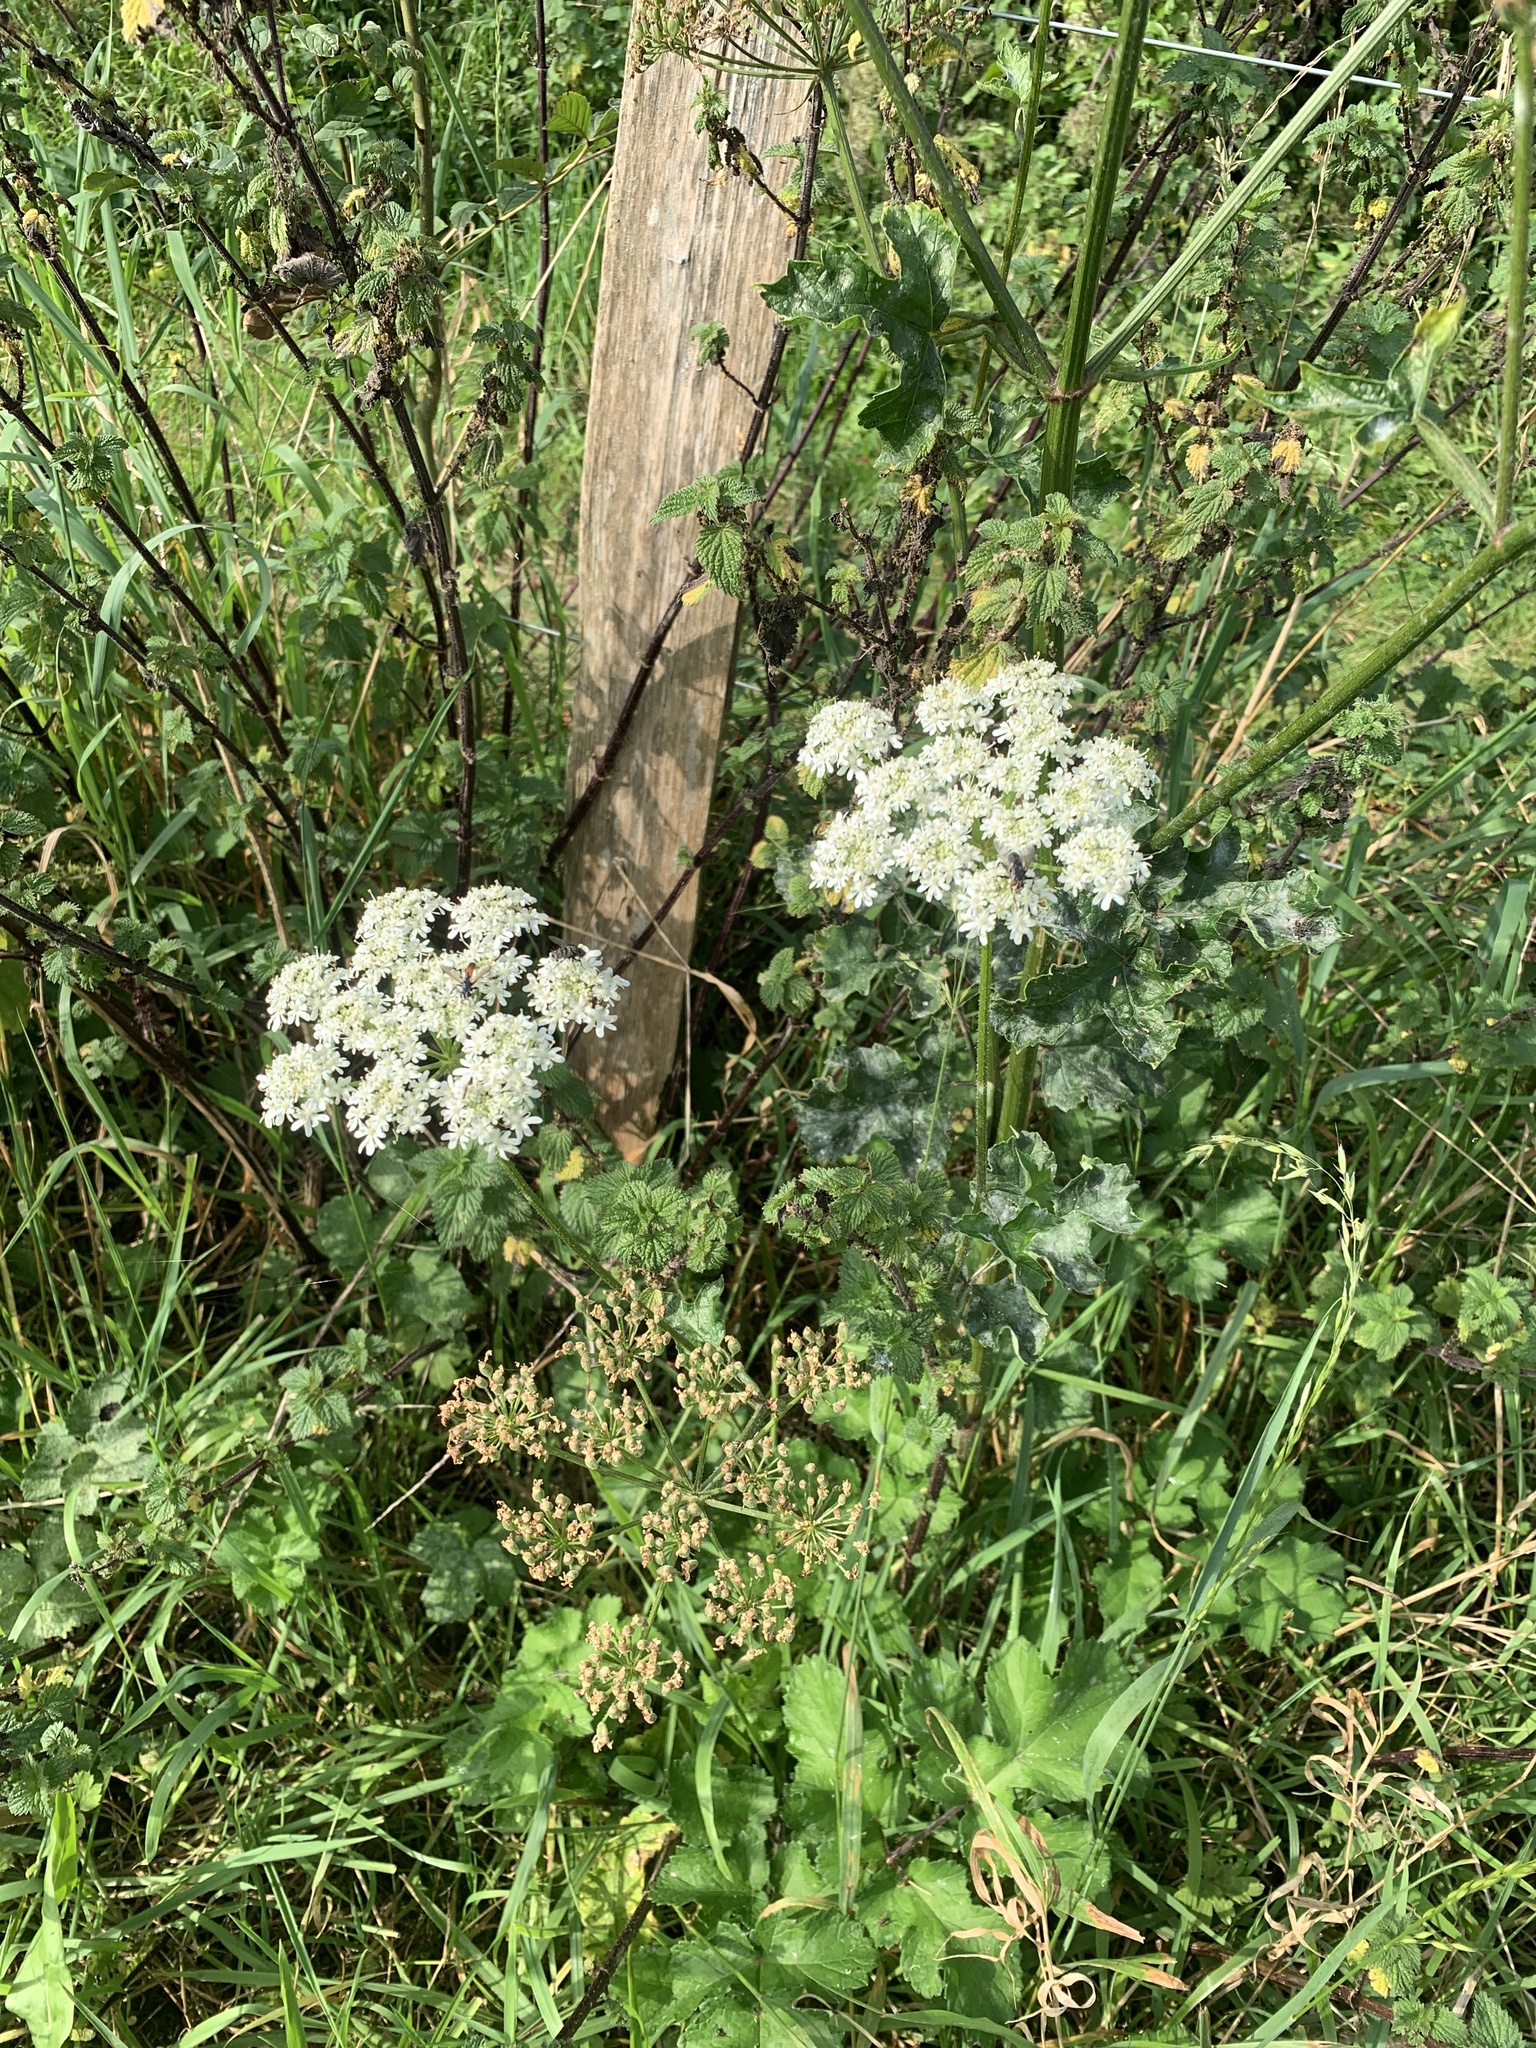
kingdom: Plantae
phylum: Tracheophyta
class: Magnoliopsida
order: Apiales
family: Apiaceae
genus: Heracleum
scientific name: Heracleum sphondylium
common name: Hogweed
